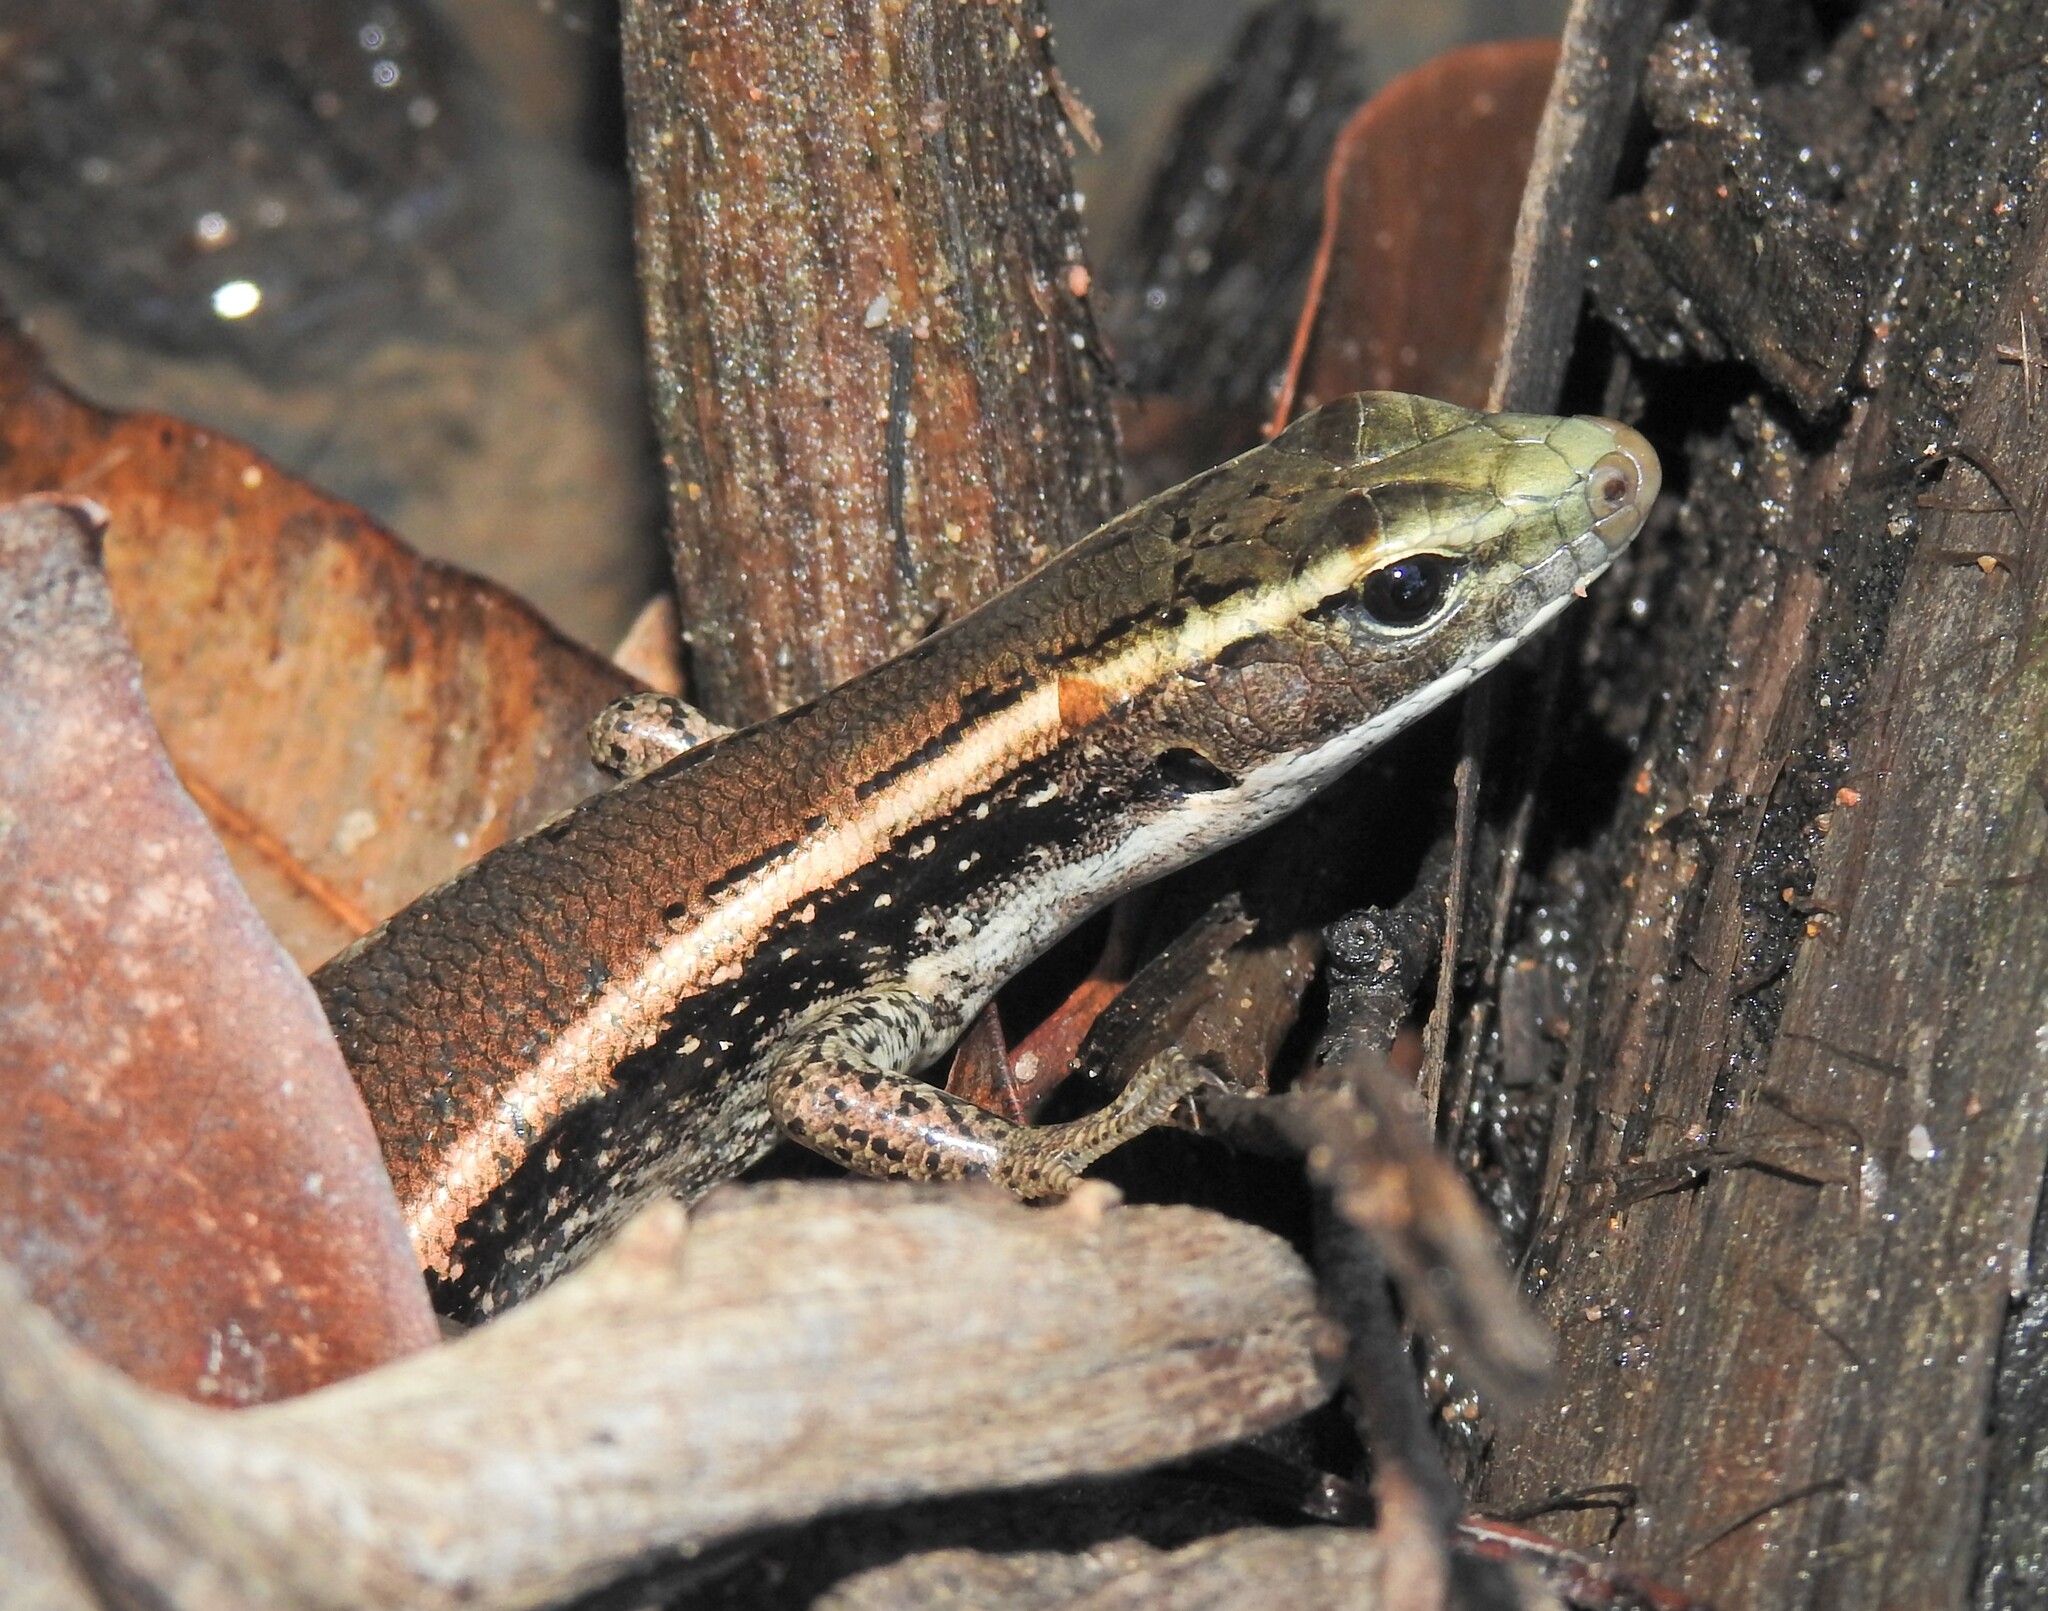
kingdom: Animalia
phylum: Chordata
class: Squamata
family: Scincidae
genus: Eulamprus
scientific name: Eulamprus quoyii
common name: Eastern water skink
